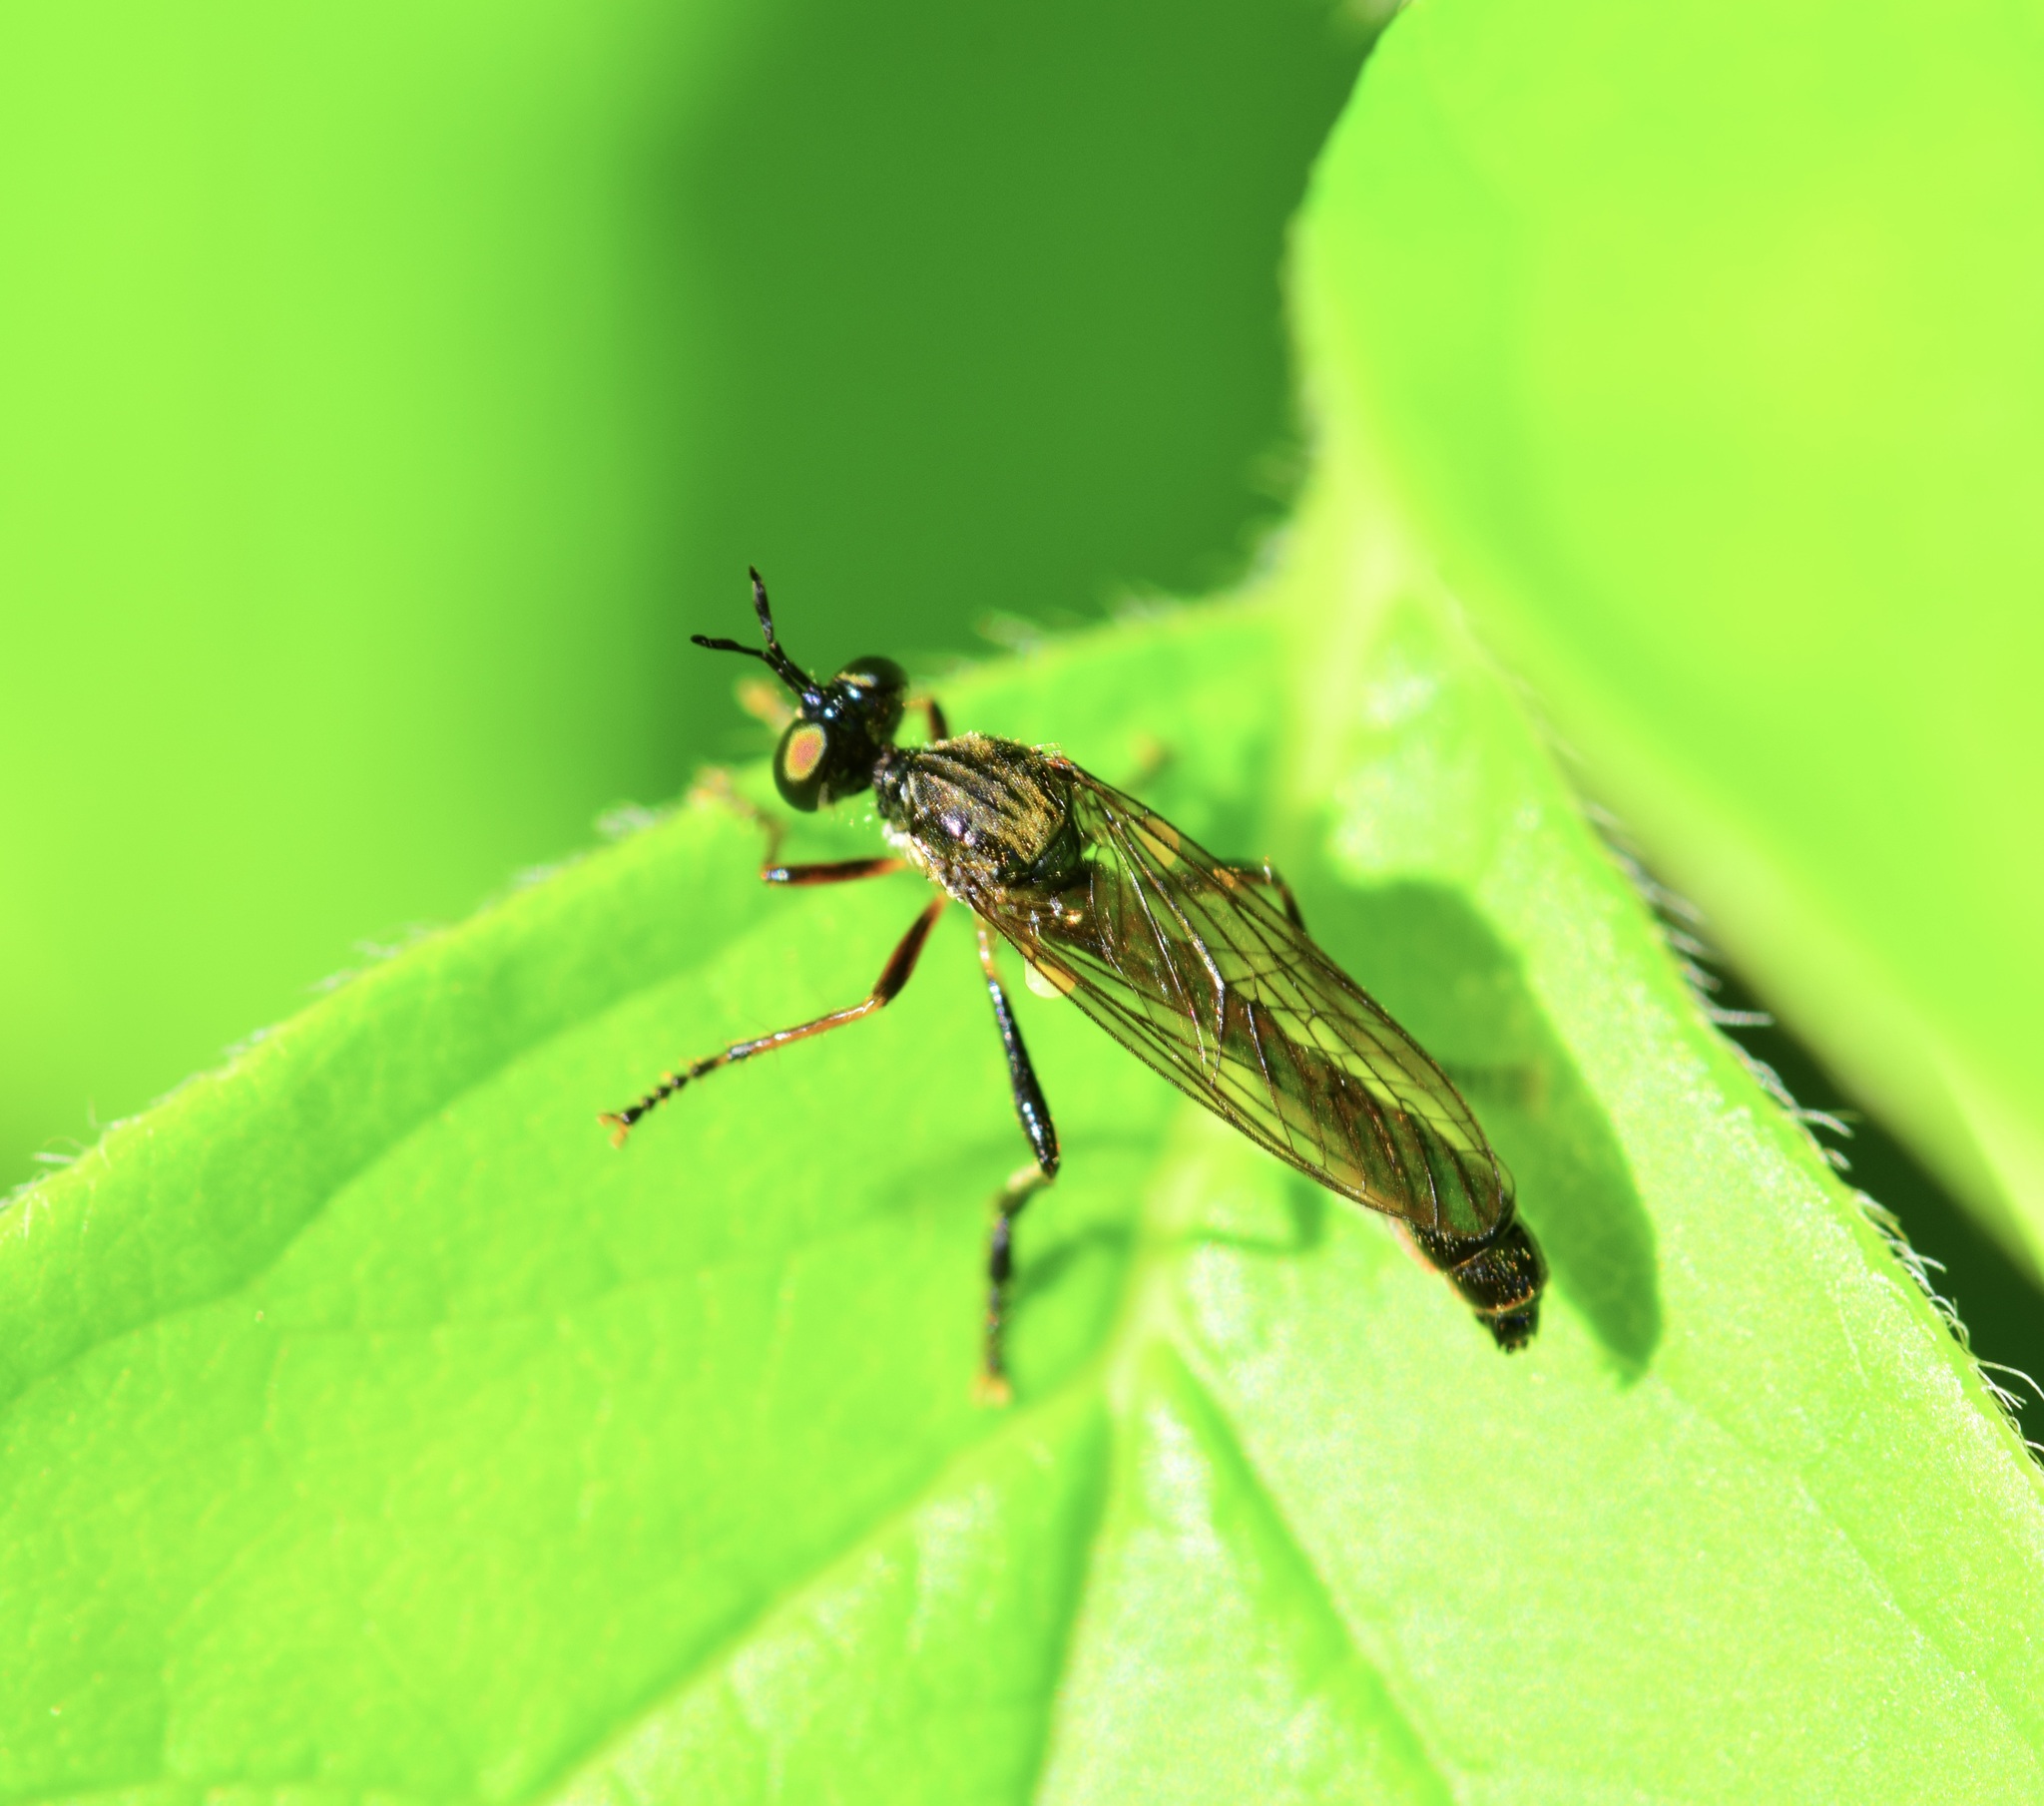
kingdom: Animalia
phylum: Arthropoda
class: Insecta
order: Diptera
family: Asilidae
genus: Dioctria
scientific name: Dioctria hyalipennis
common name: Stripe-legged robberfly
